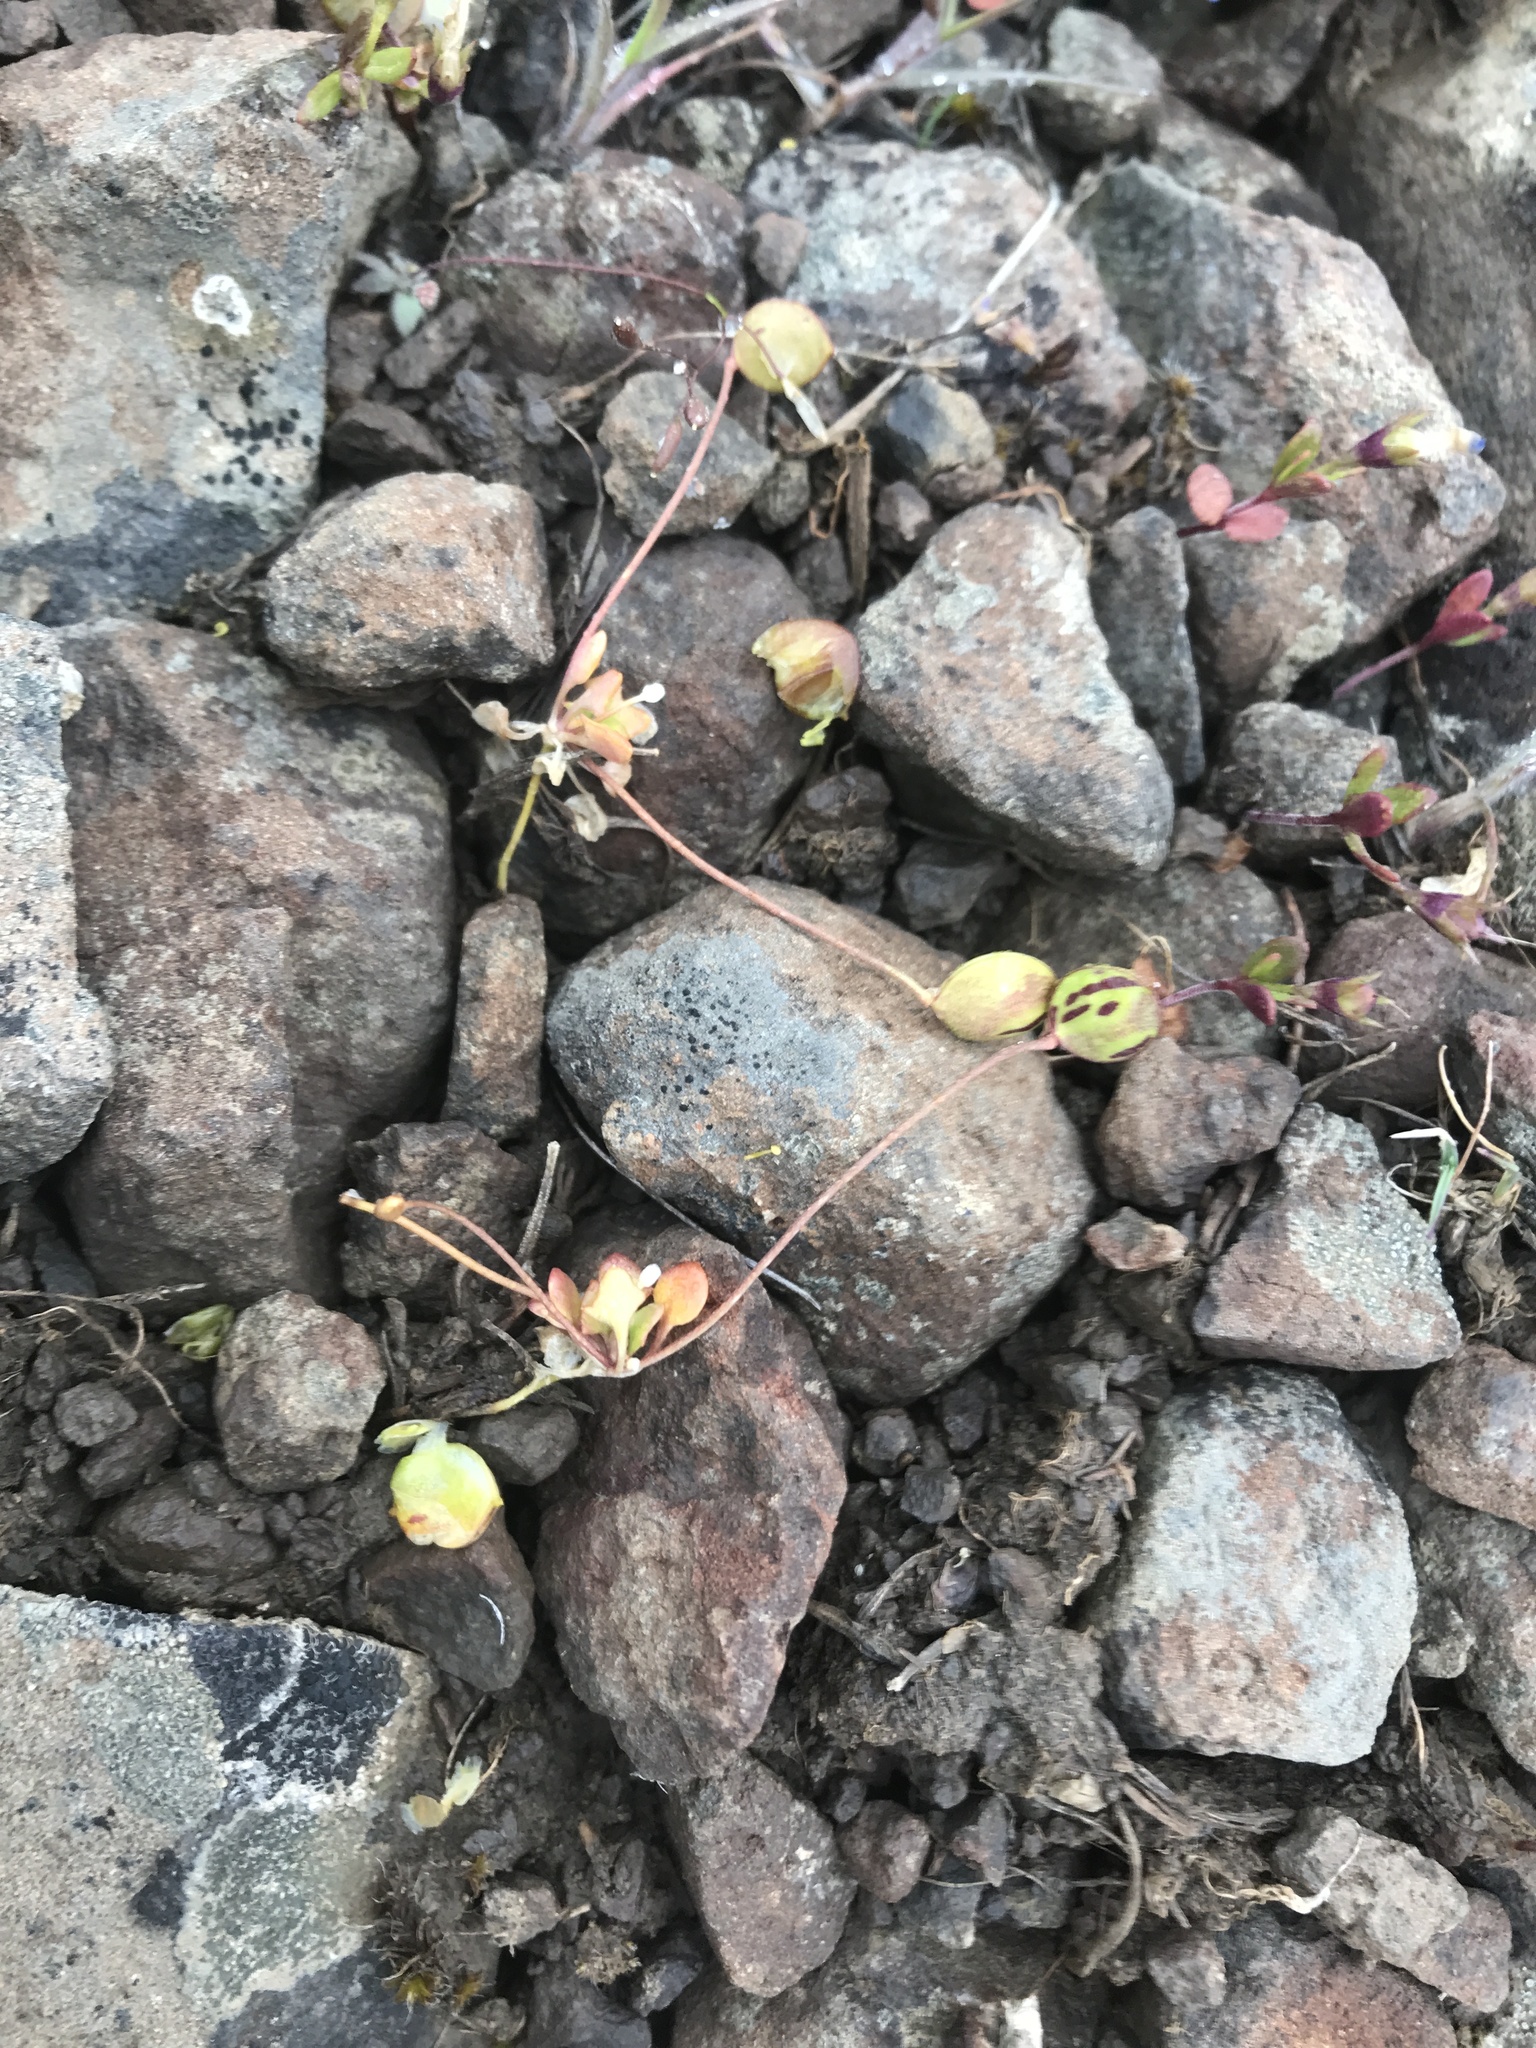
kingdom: Plantae
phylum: Tracheophyta
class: Magnoliopsida
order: Brassicales
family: Brassicaceae
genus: Idahoa
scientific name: Idahoa scapigera
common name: Scalepod
